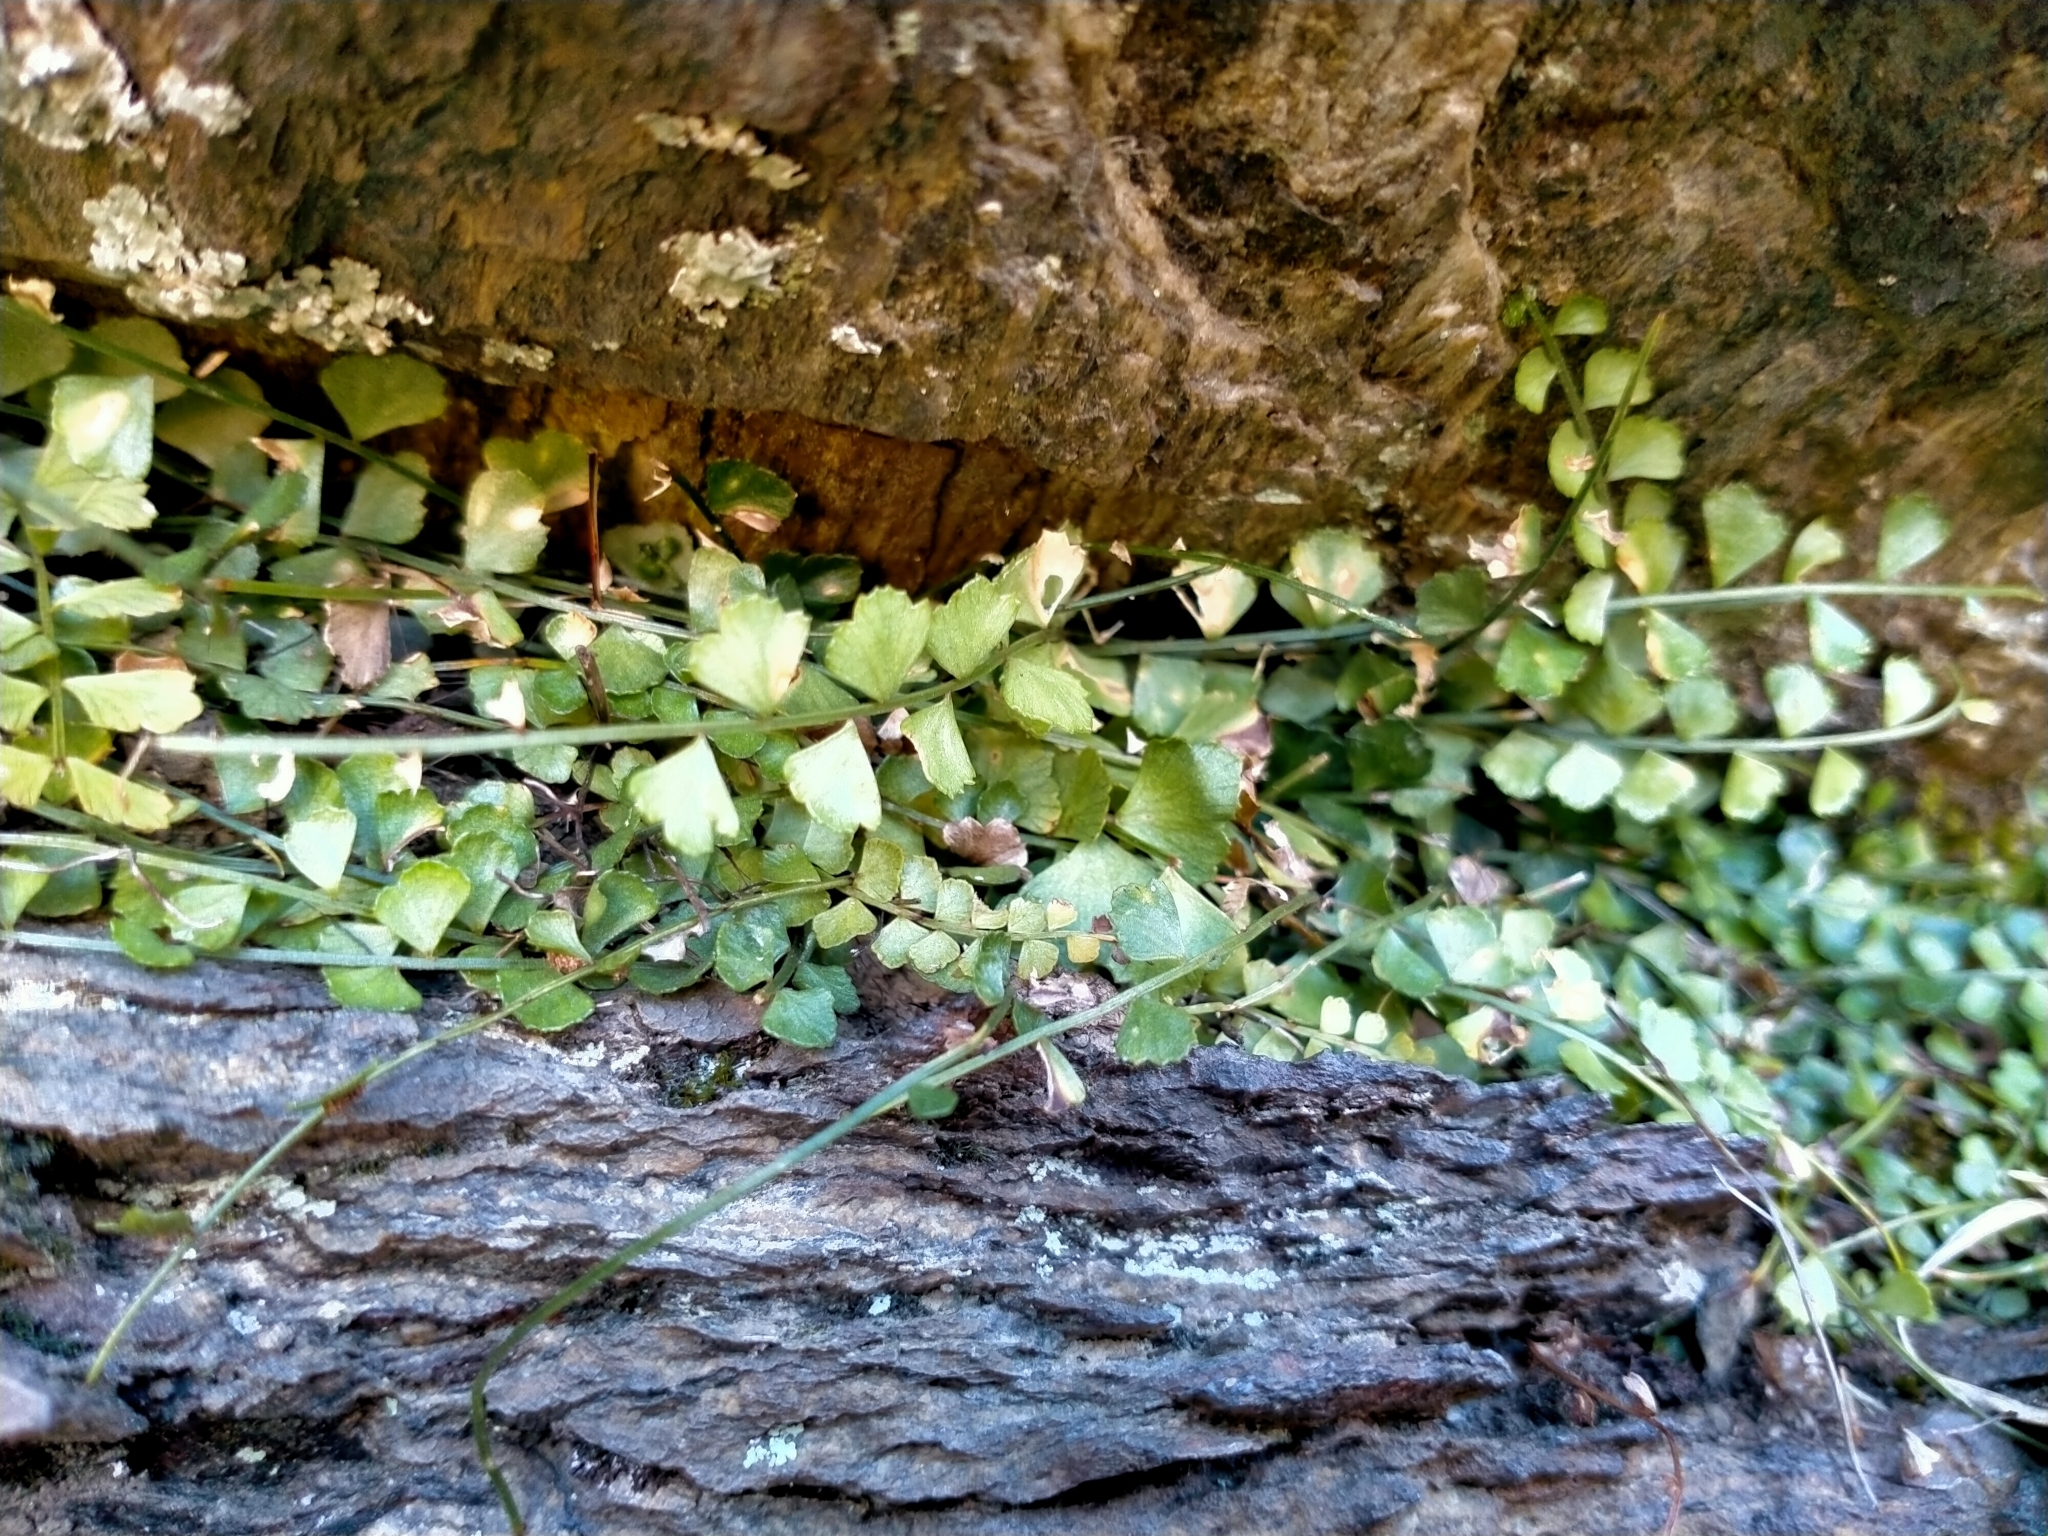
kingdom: Plantae
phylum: Tracheophyta
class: Polypodiopsida
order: Polypodiales
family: Aspleniaceae
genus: Asplenium
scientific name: Asplenium flabellifolium
